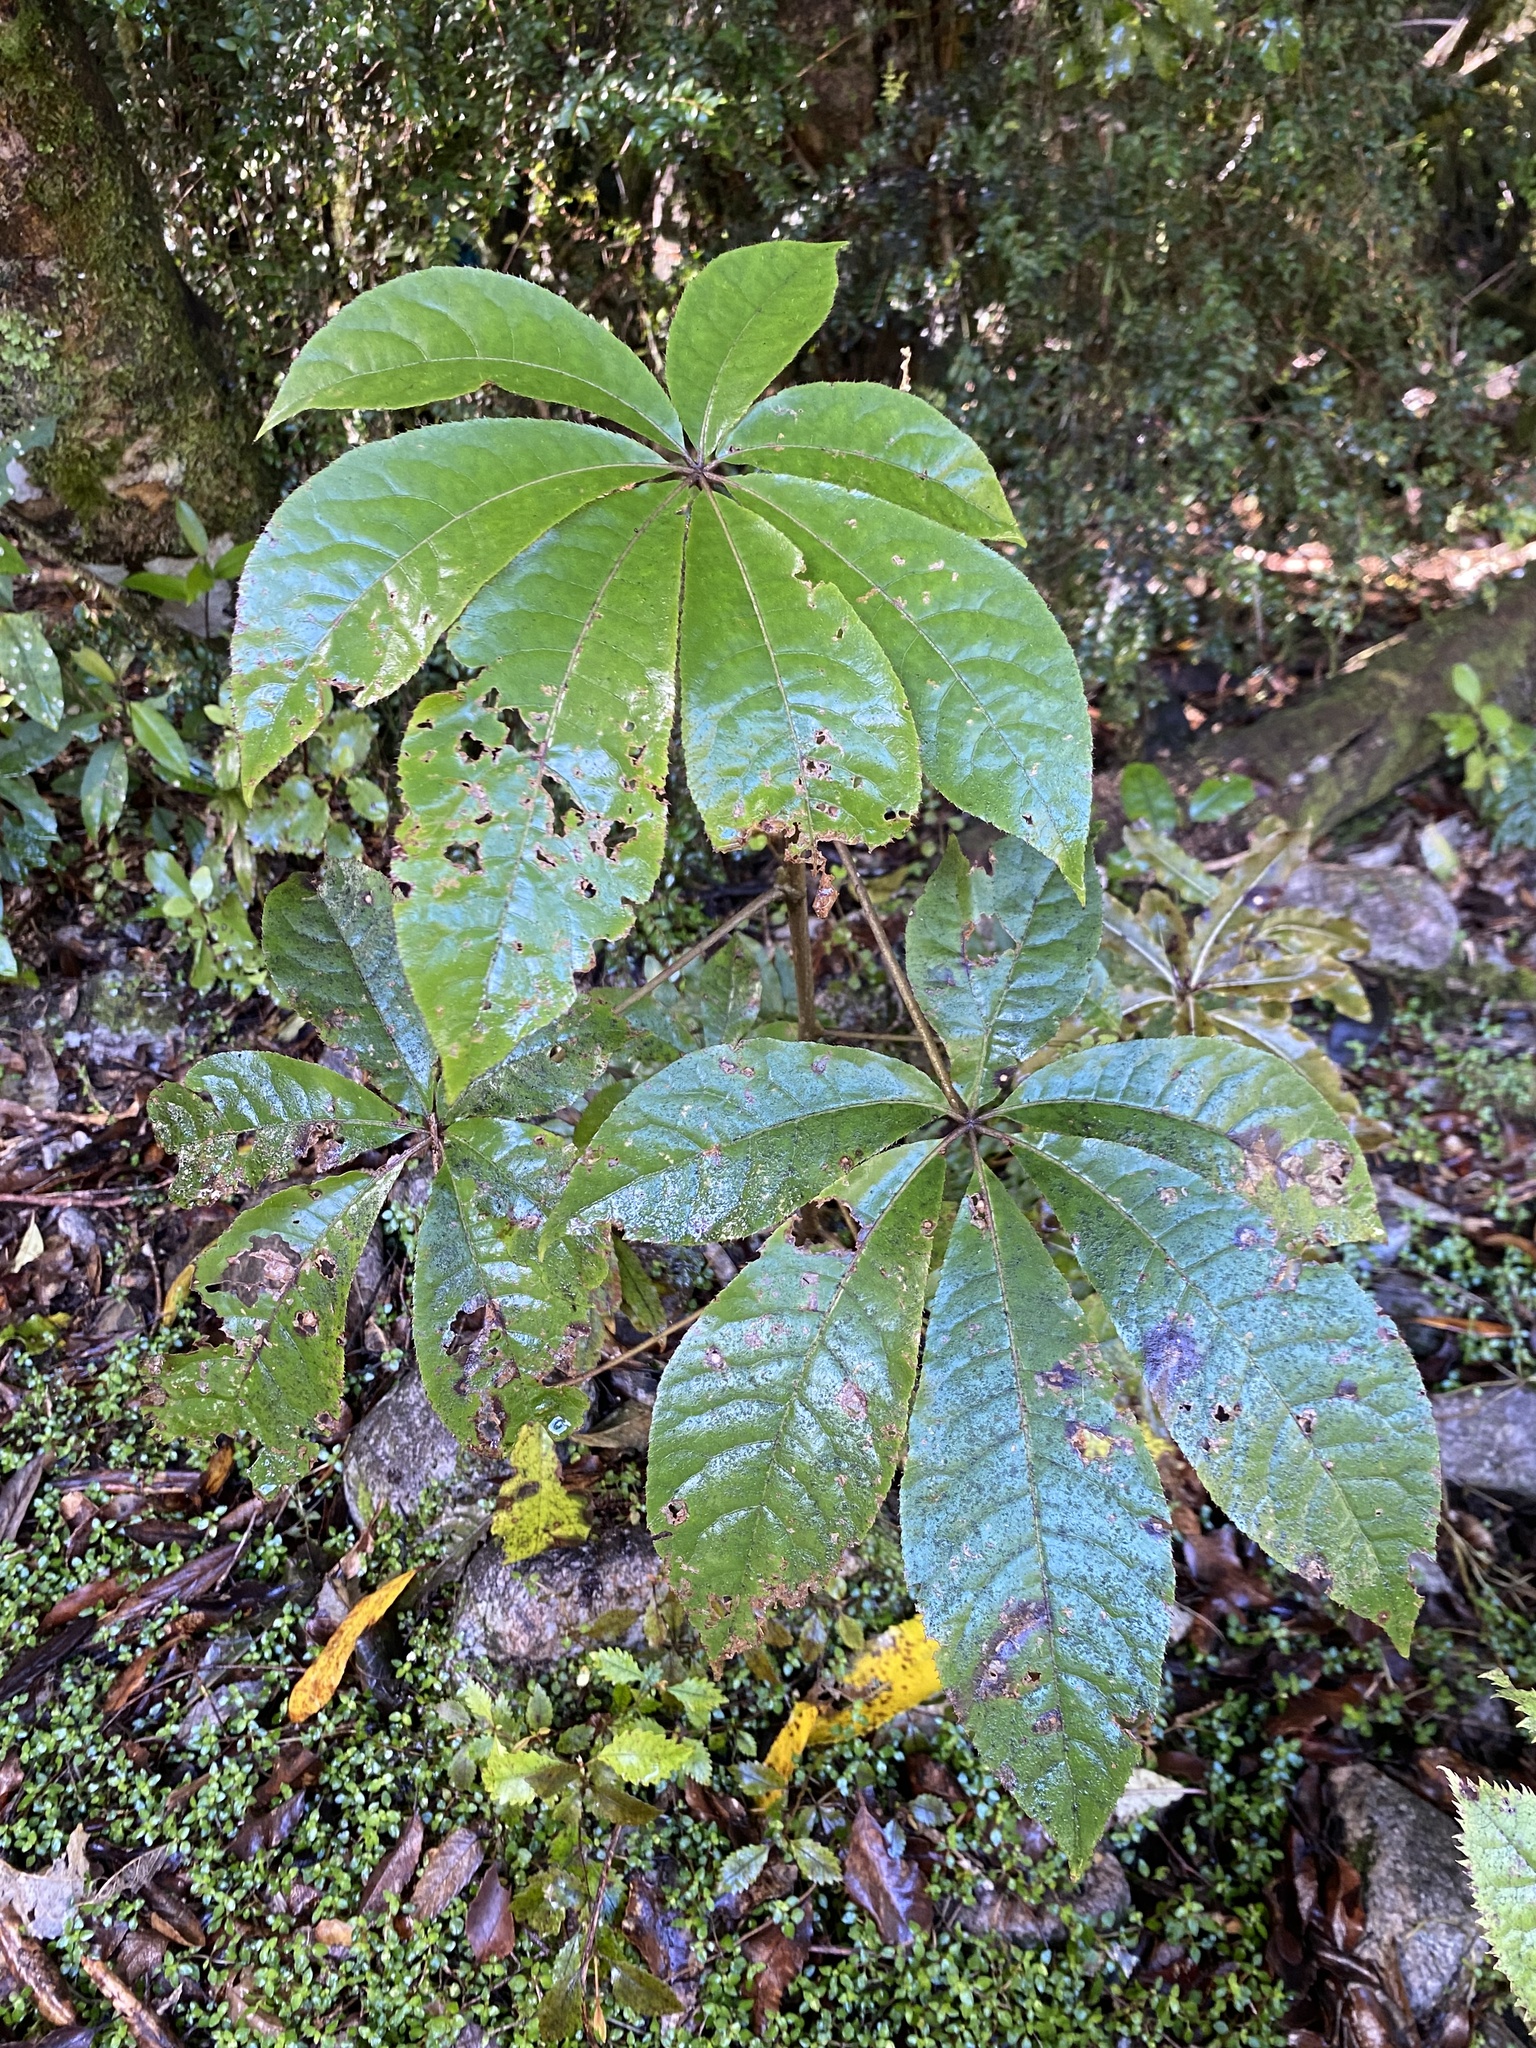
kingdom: Plantae
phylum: Tracheophyta
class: Magnoliopsida
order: Apiales
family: Araliaceae
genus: Schefflera
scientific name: Schefflera digitata
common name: Pate
